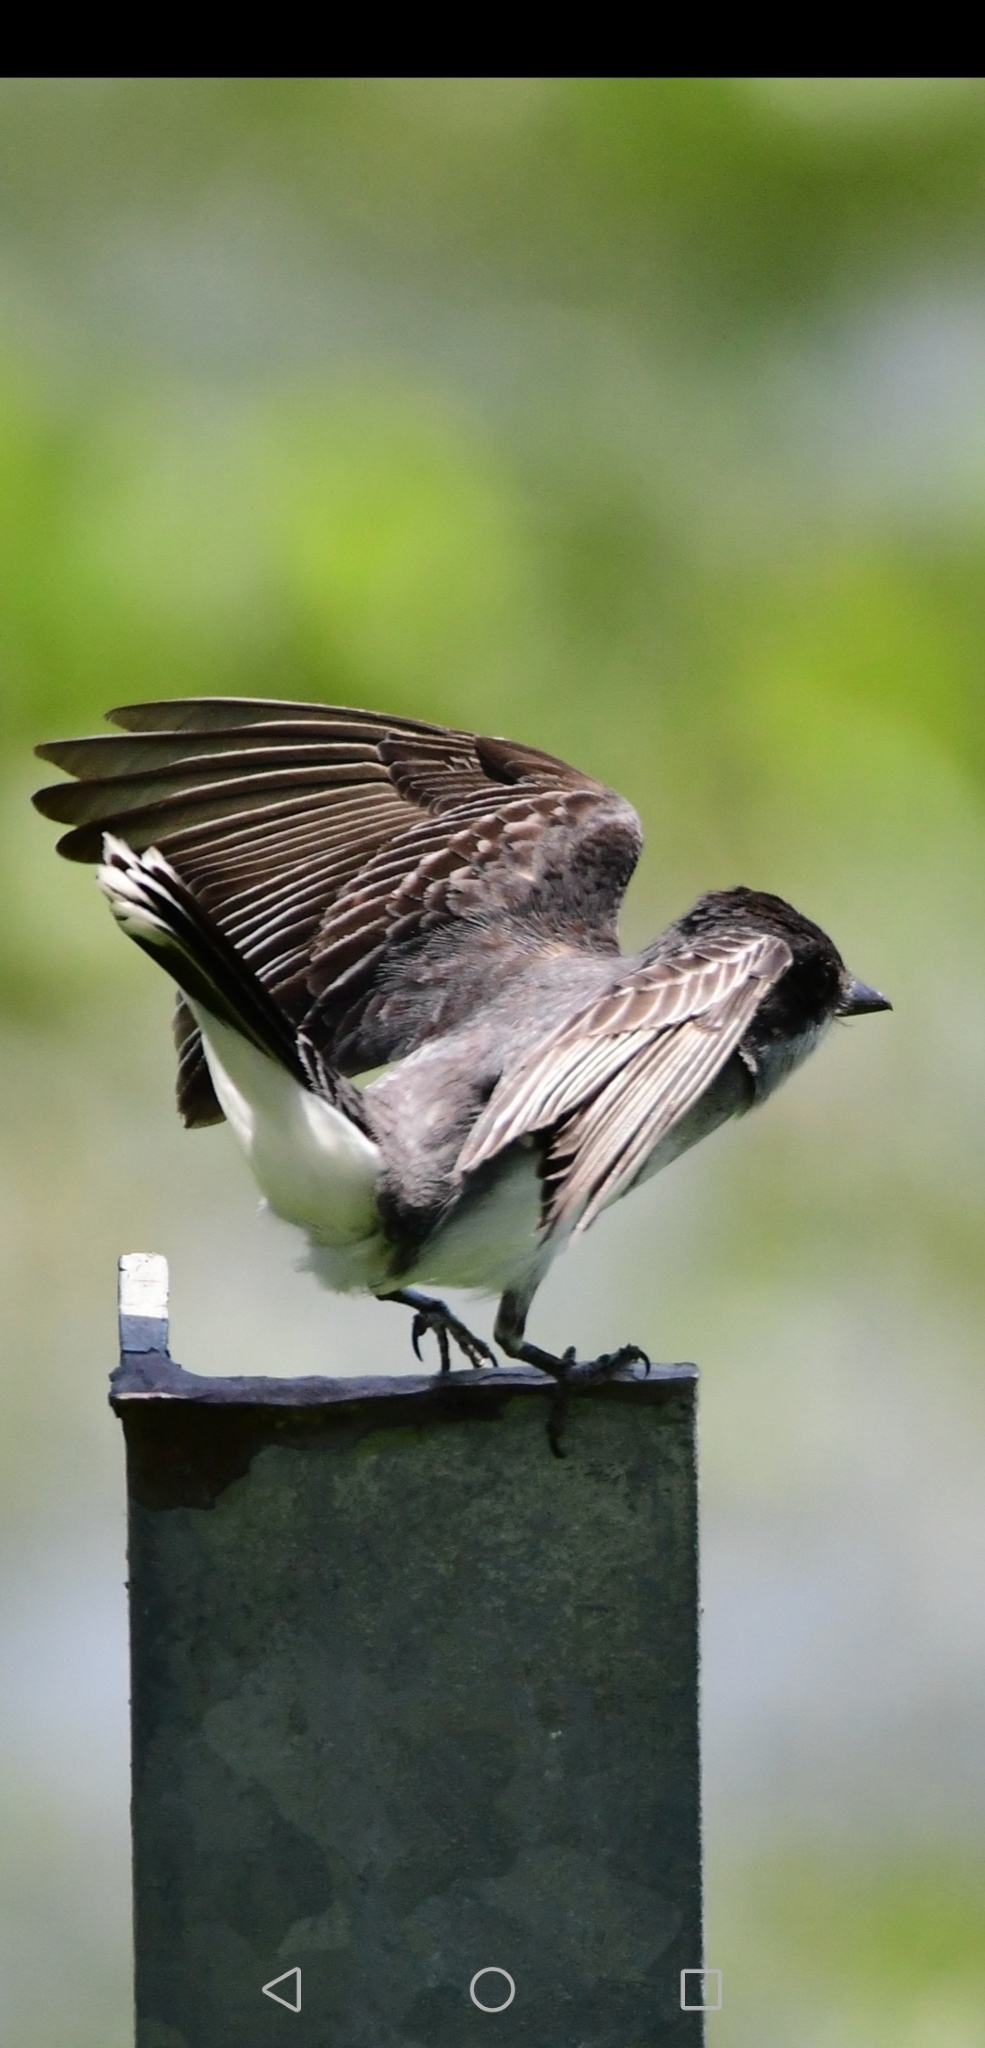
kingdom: Animalia
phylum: Chordata
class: Aves
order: Passeriformes
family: Tyrannidae
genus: Tyrannus
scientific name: Tyrannus tyrannus
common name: Eastern kingbird
